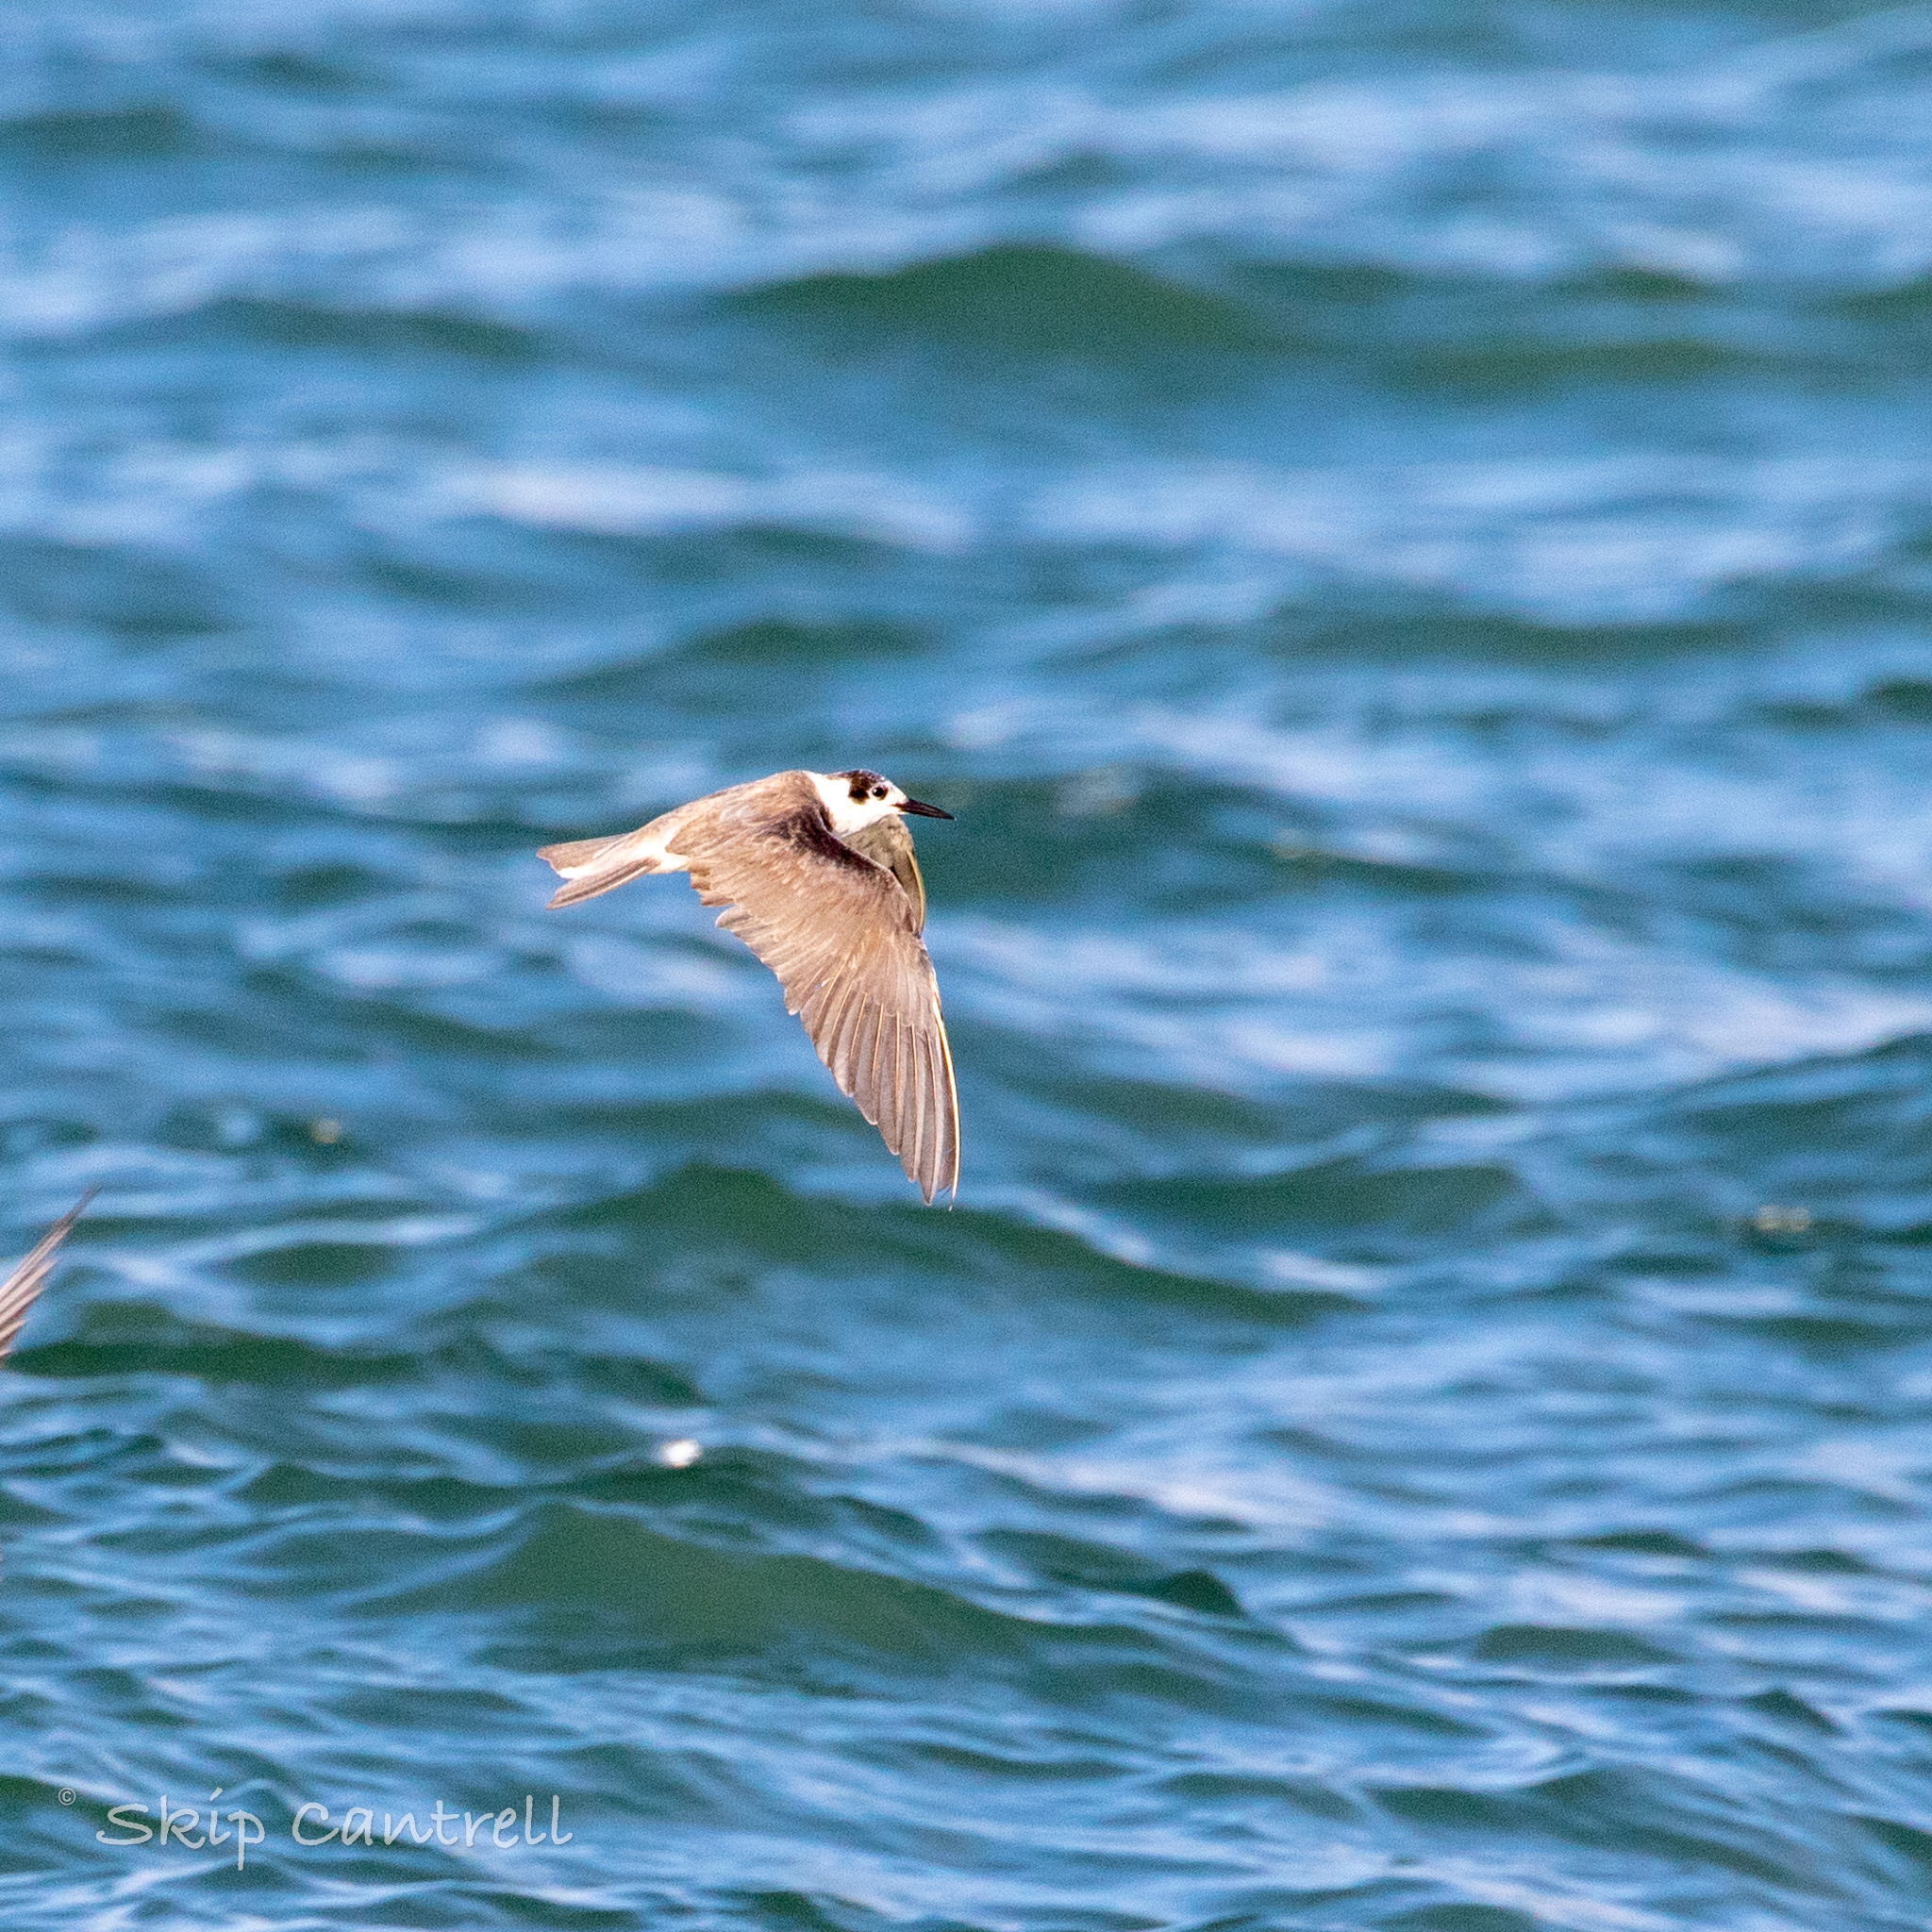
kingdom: Animalia
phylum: Chordata
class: Aves
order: Charadriiformes
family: Laridae
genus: Chlidonias
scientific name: Chlidonias niger
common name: Black tern
